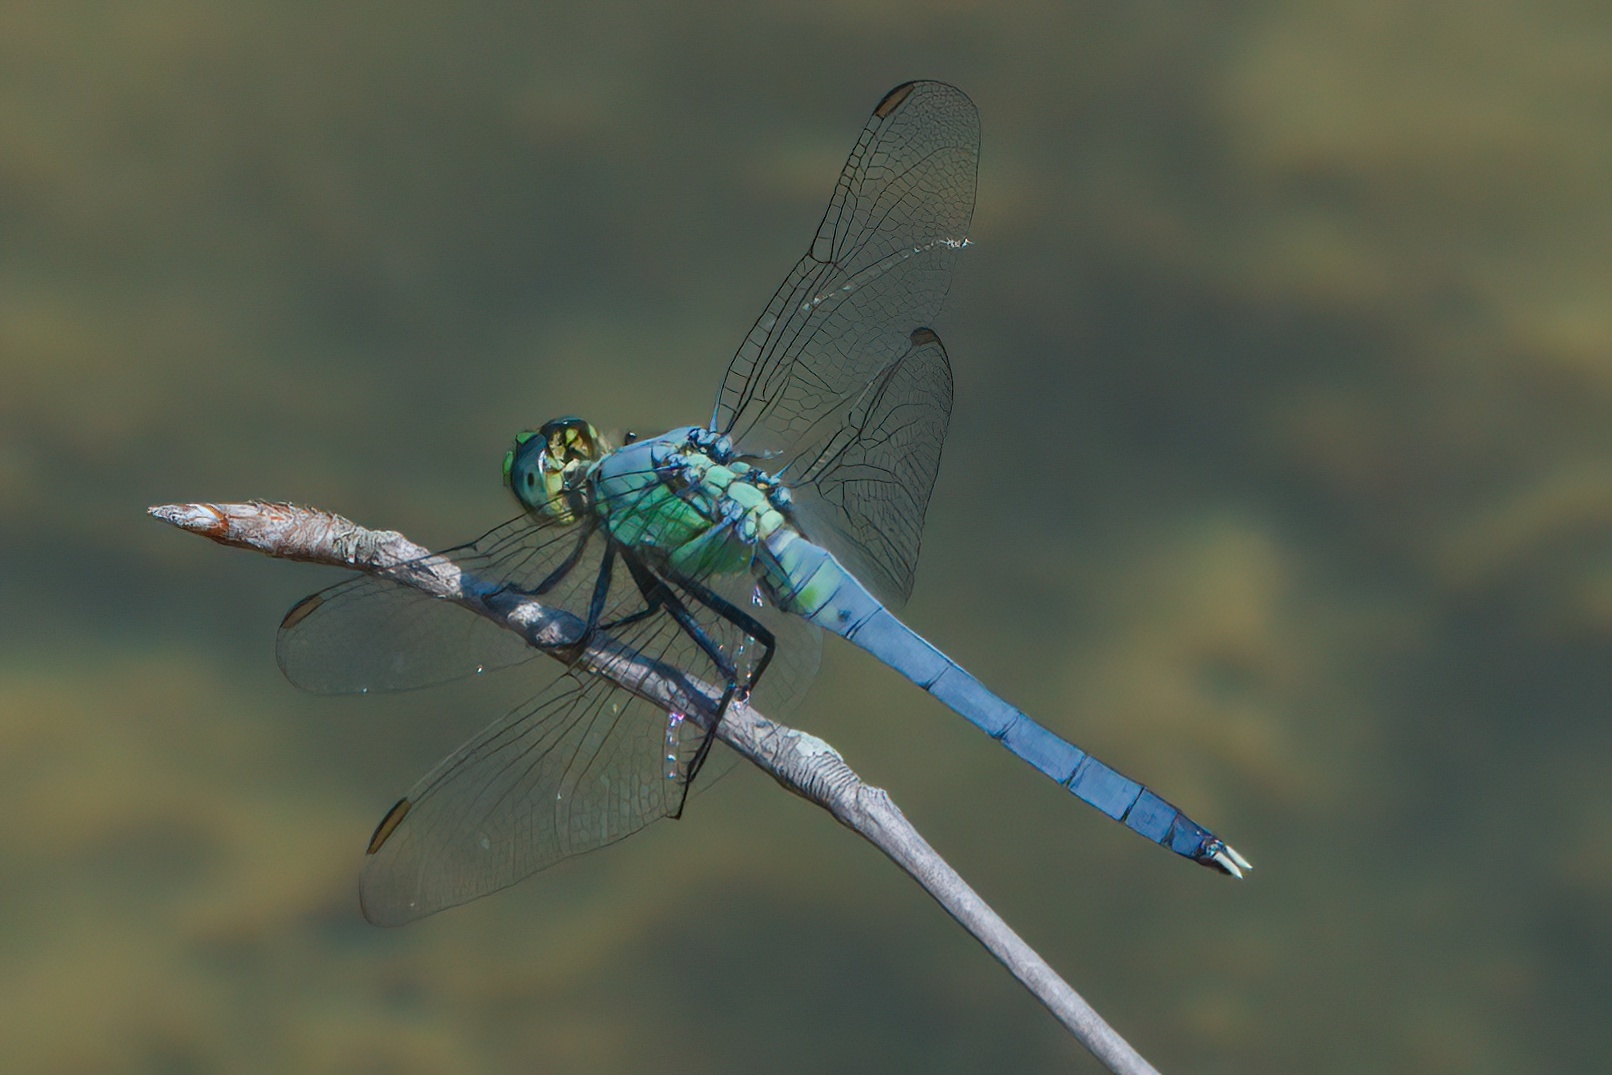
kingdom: Animalia
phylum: Arthropoda
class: Insecta
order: Odonata
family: Libellulidae
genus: Erythemis
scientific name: Erythemis simplicicollis
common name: Eastern pondhawk
